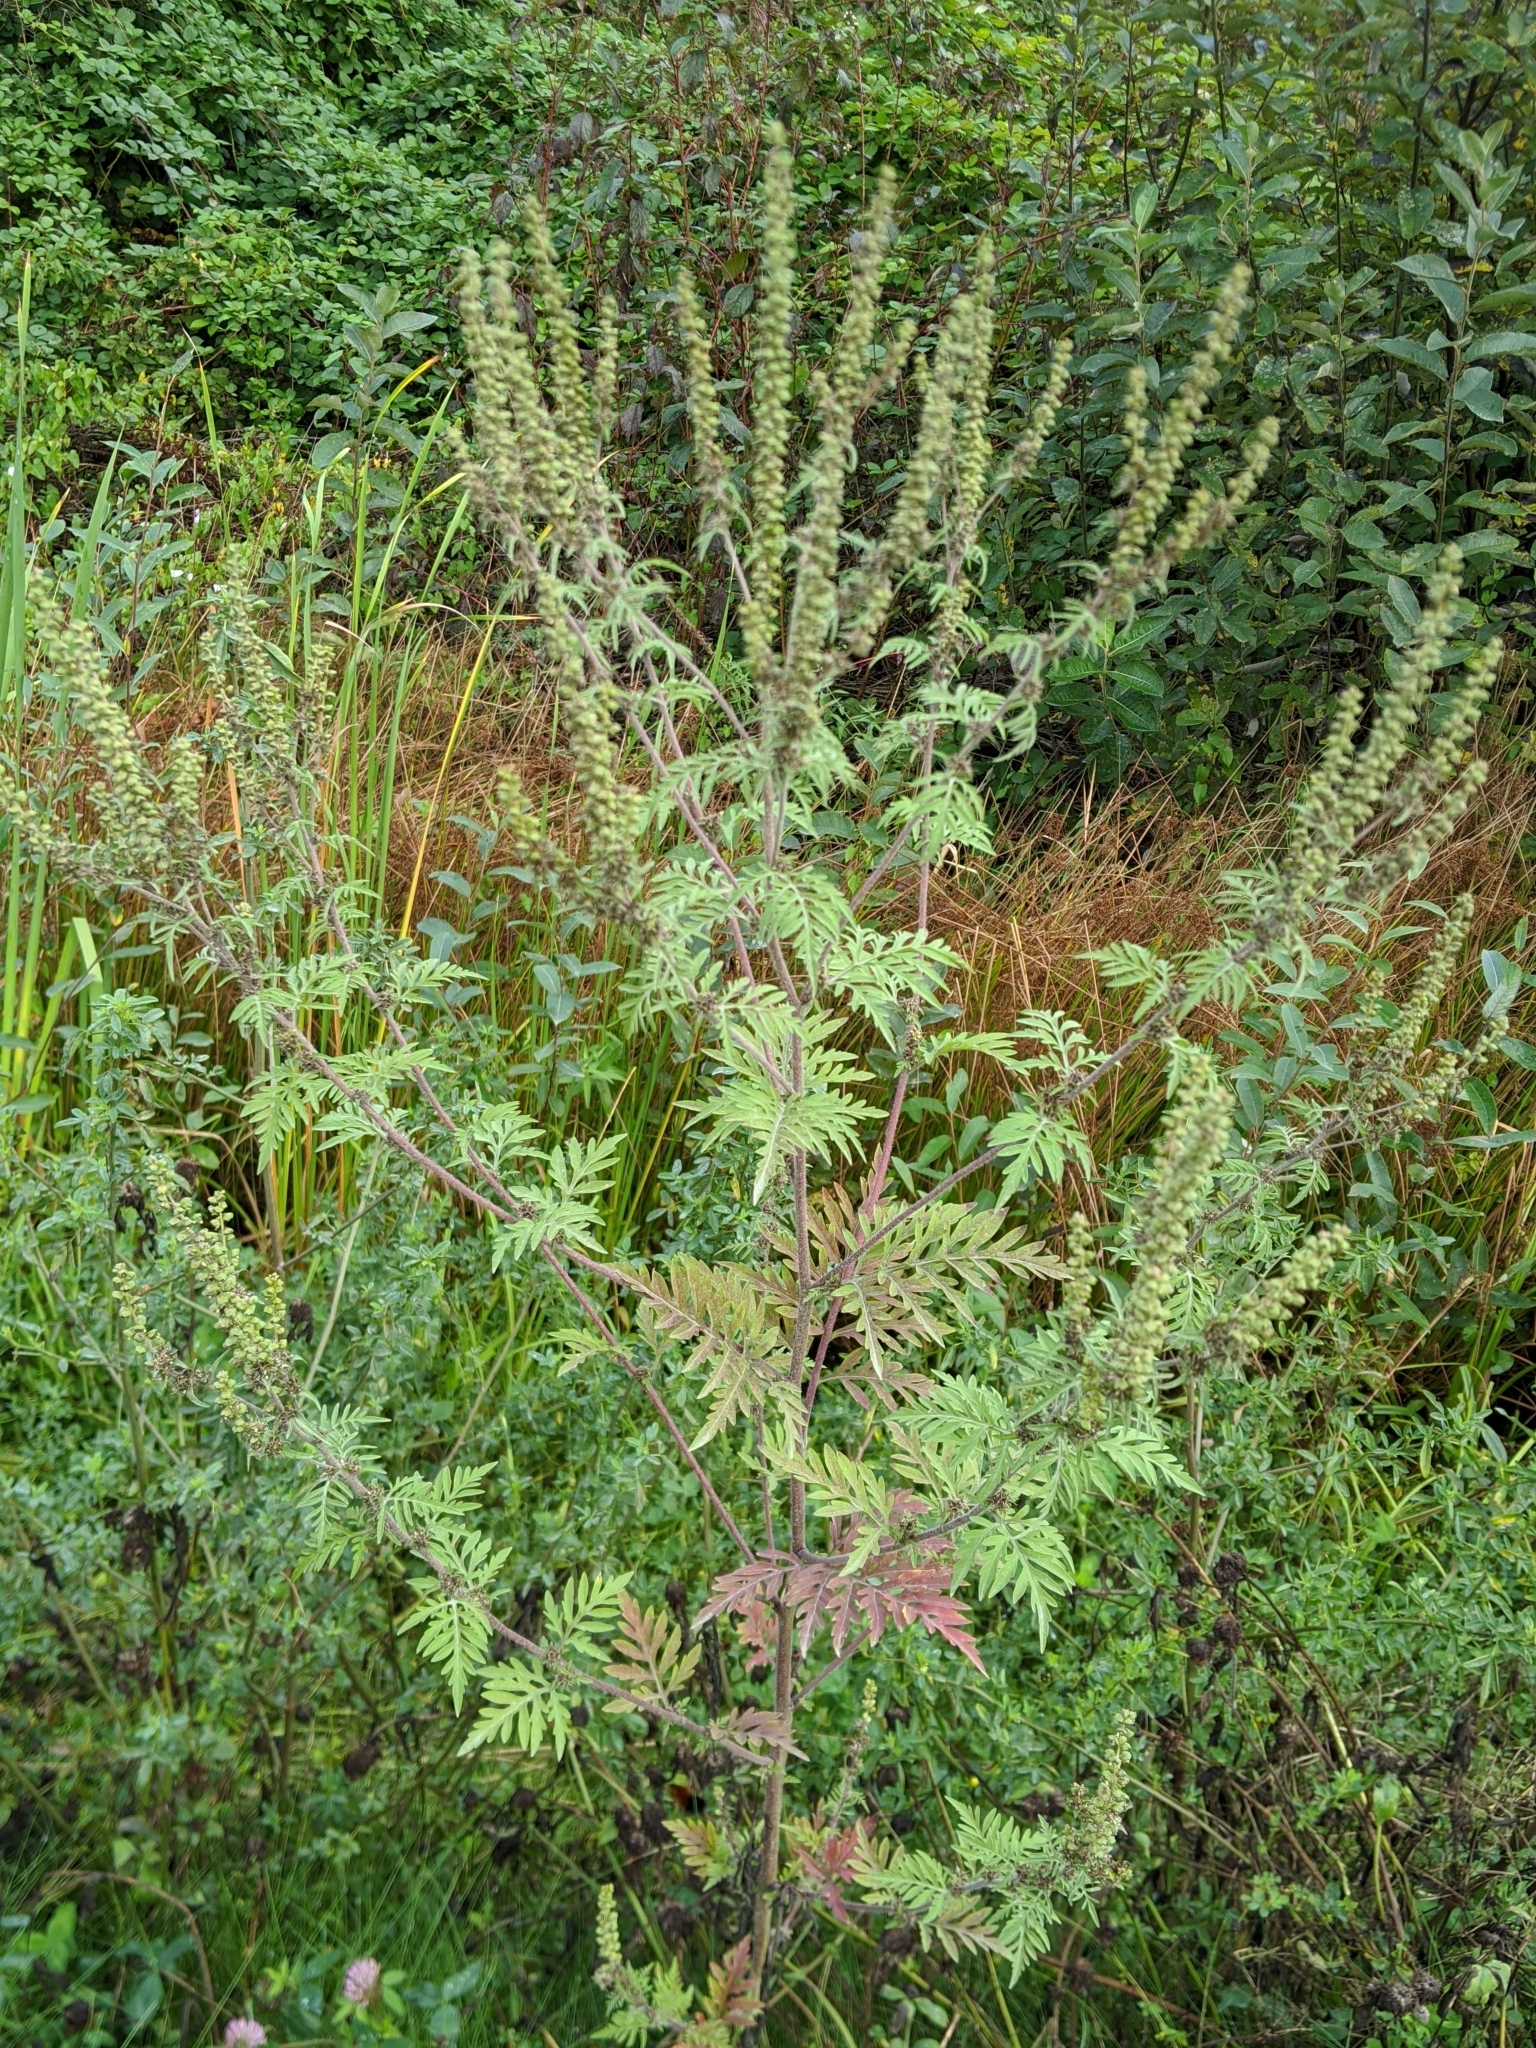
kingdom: Plantae
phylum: Tracheophyta
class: Magnoliopsida
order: Asterales
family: Asteraceae
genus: Ambrosia
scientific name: Ambrosia artemisiifolia
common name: Annual ragweed
